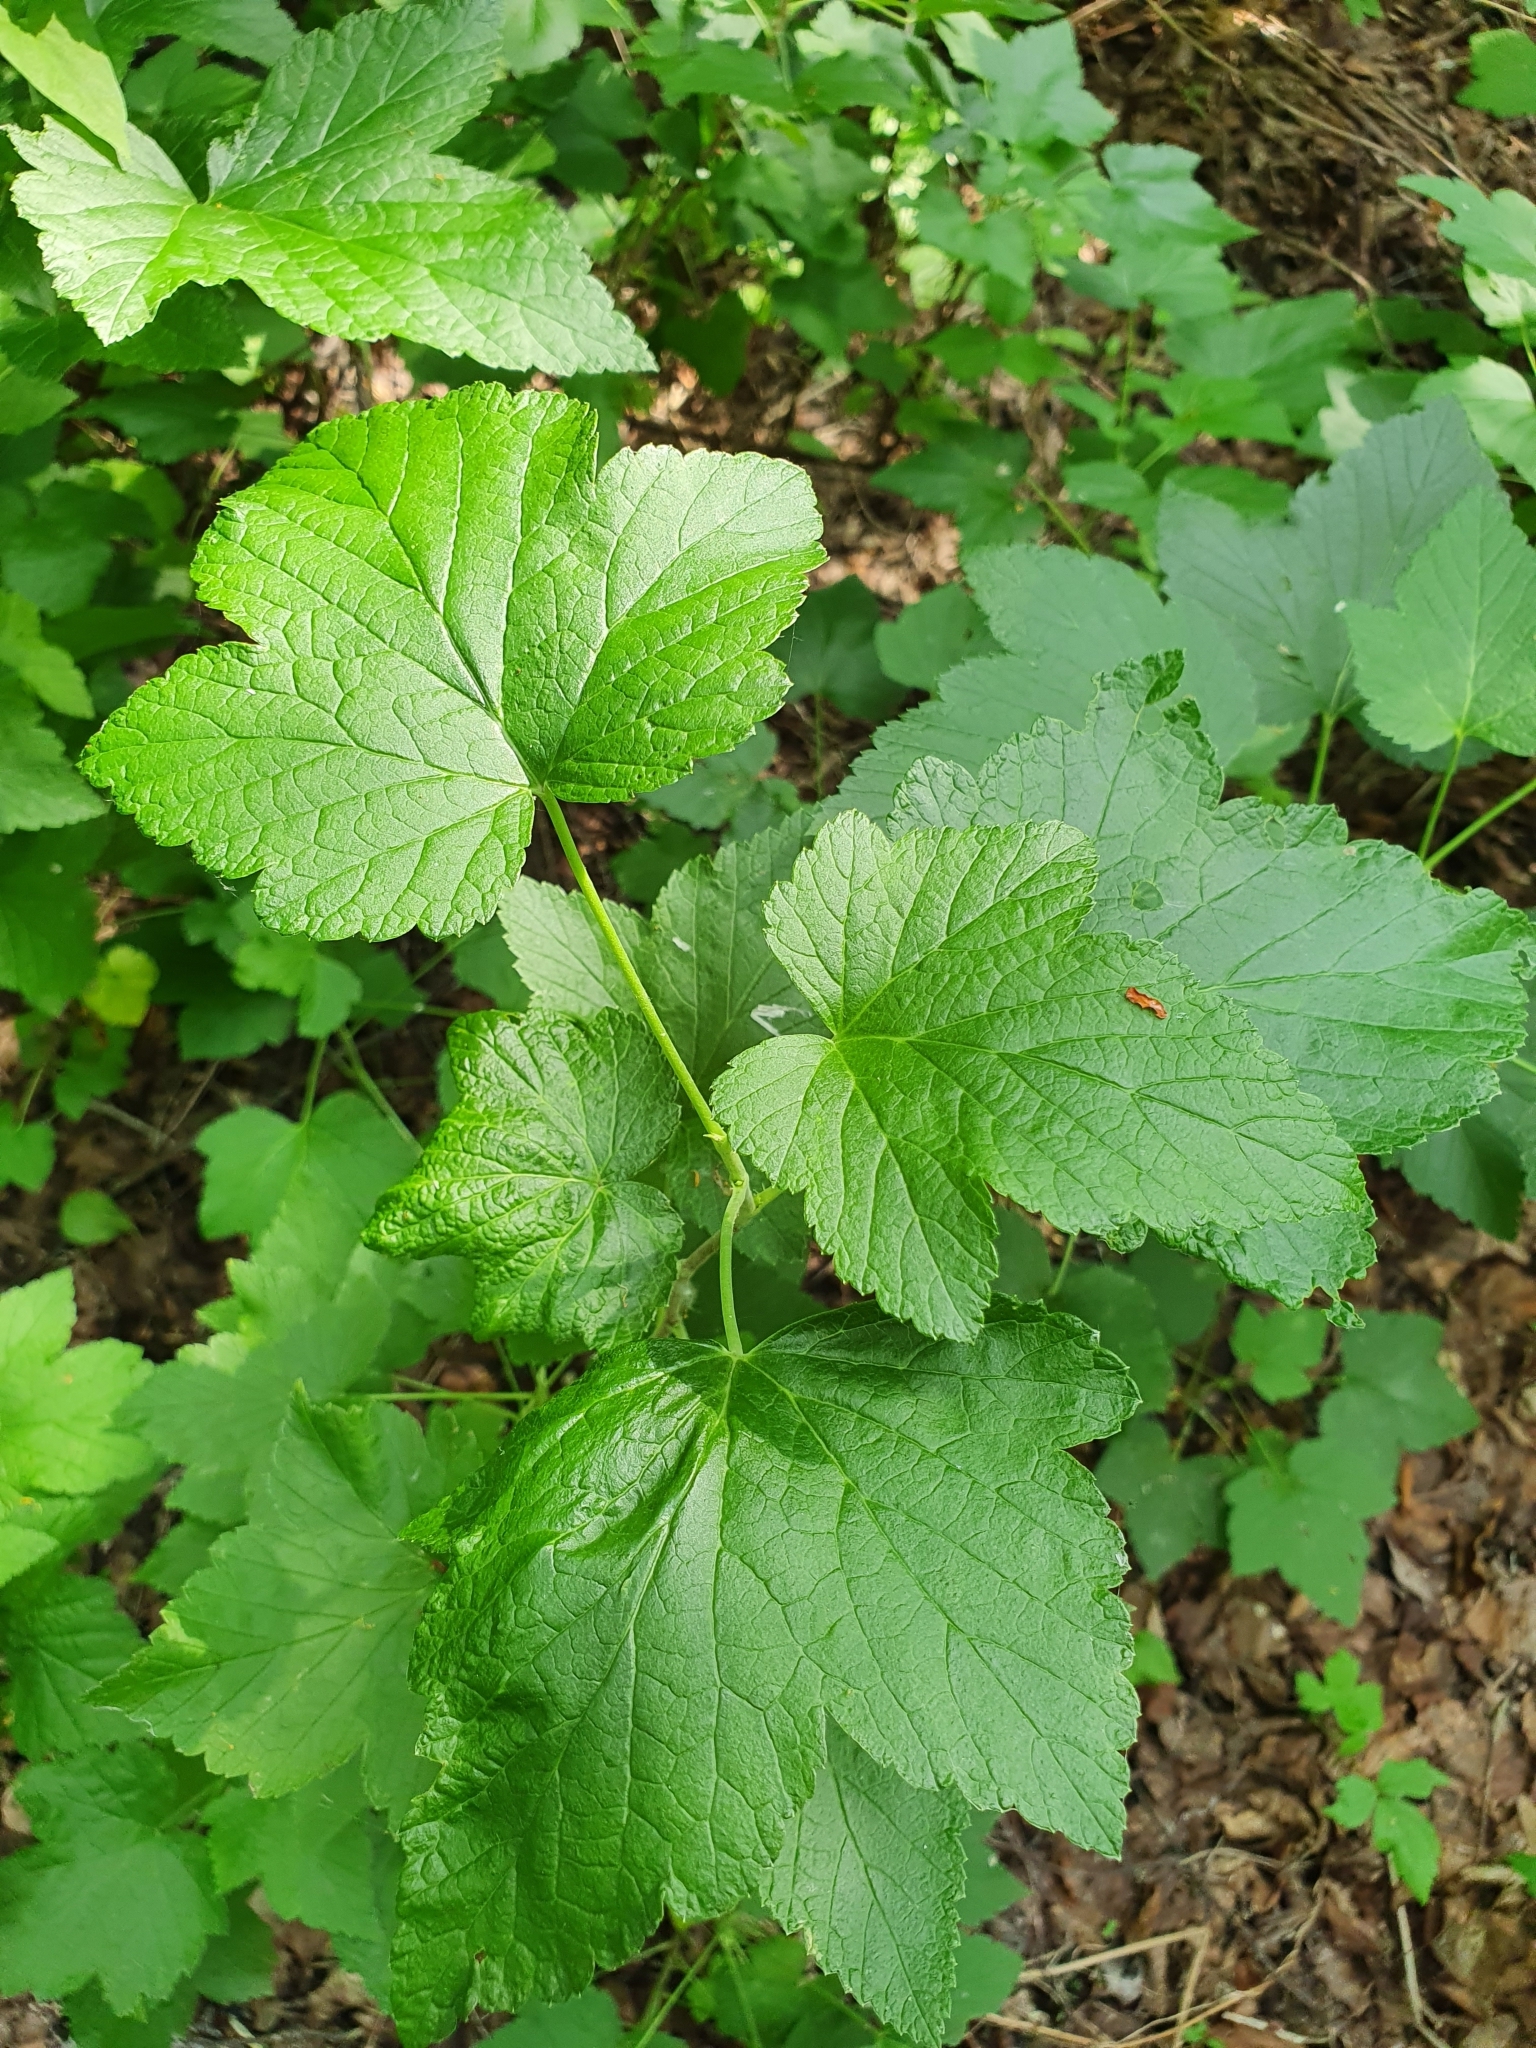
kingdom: Plantae
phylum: Tracheophyta
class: Magnoliopsida
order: Saxifragales
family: Grossulariaceae
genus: Ribes
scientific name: Ribes nigrum
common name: Black currant
